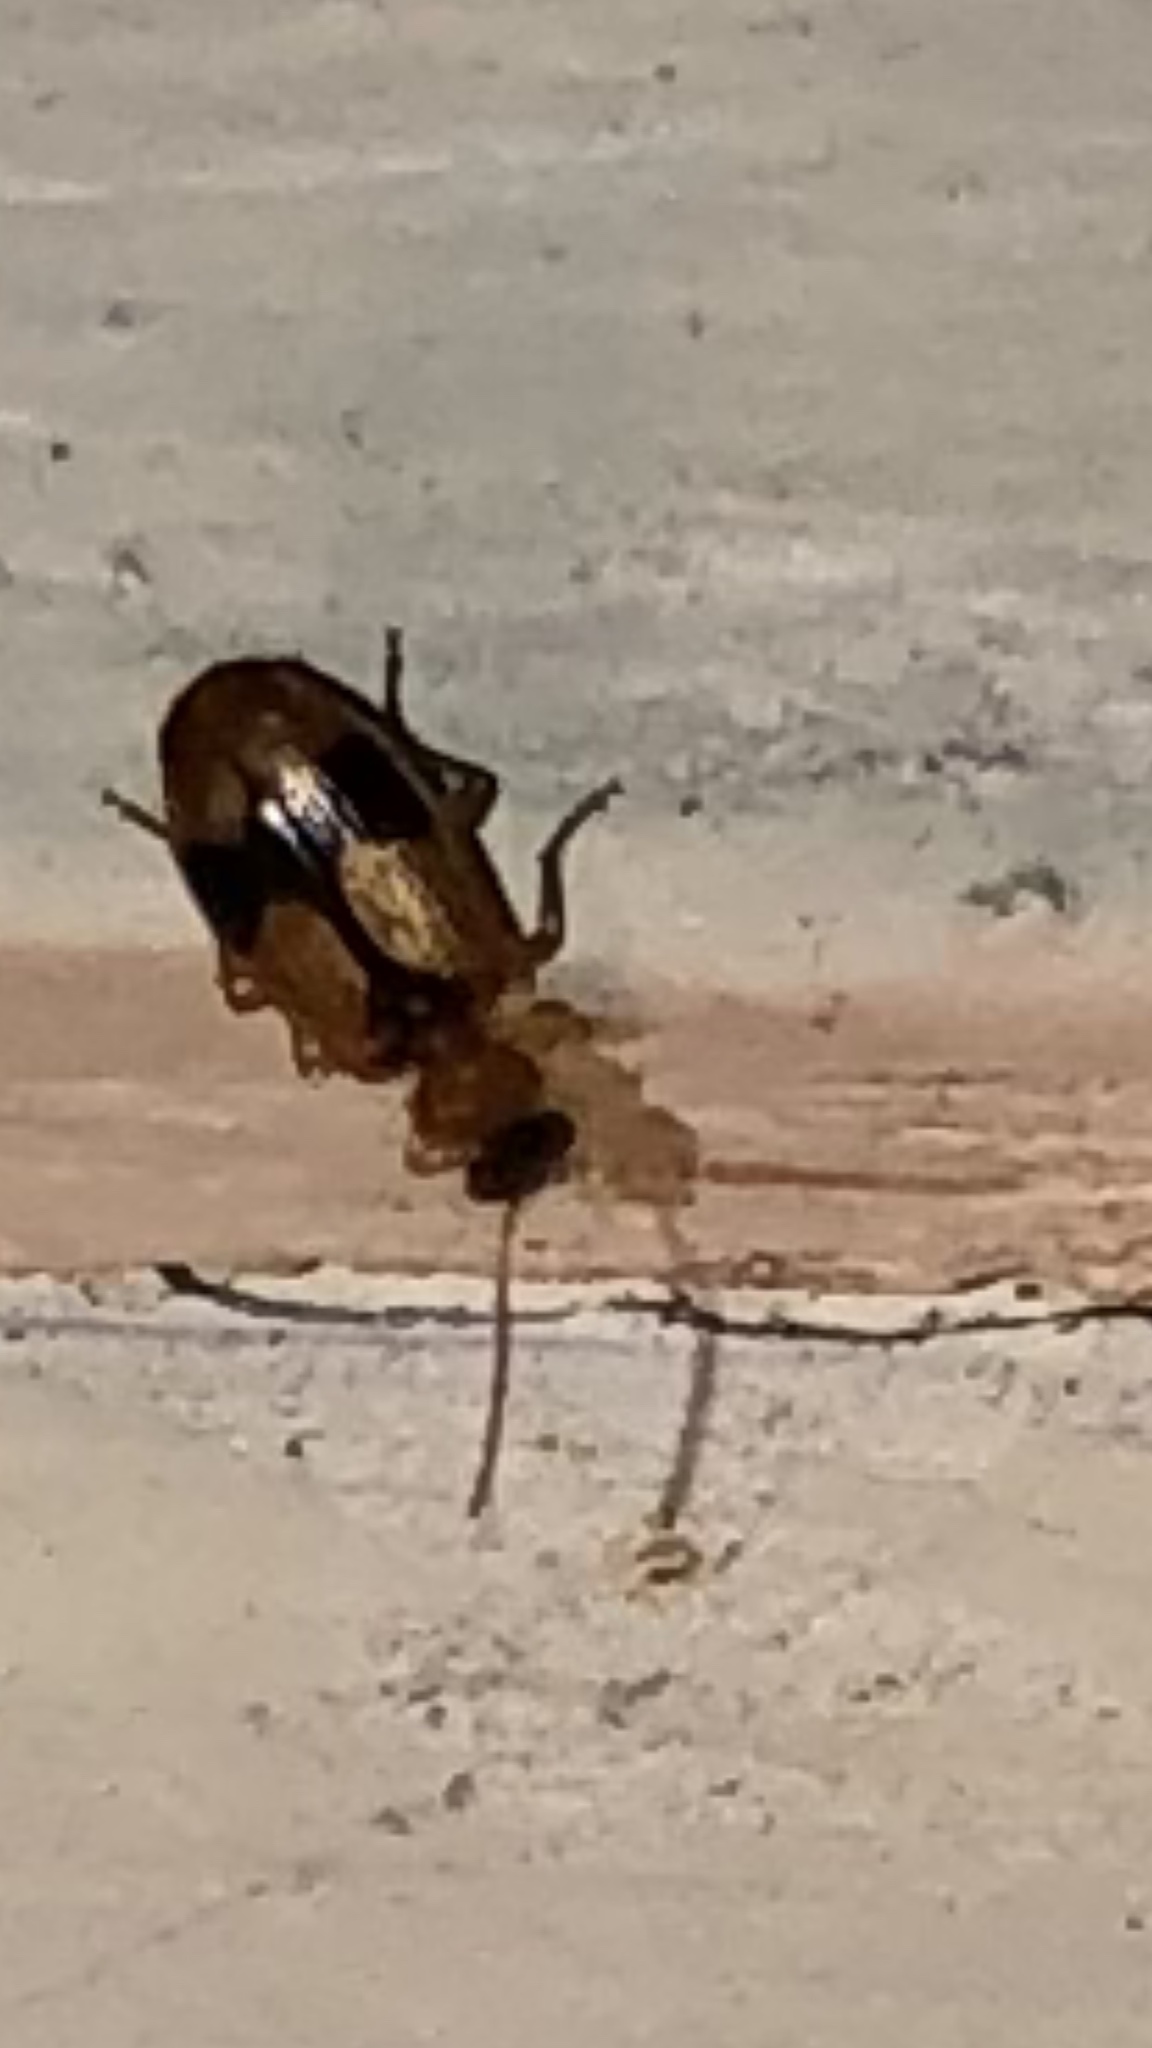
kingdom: Animalia
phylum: Arthropoda
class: Insecta
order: Coleoptera
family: Carabidae
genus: Lebia
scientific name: Lebia esurialis
